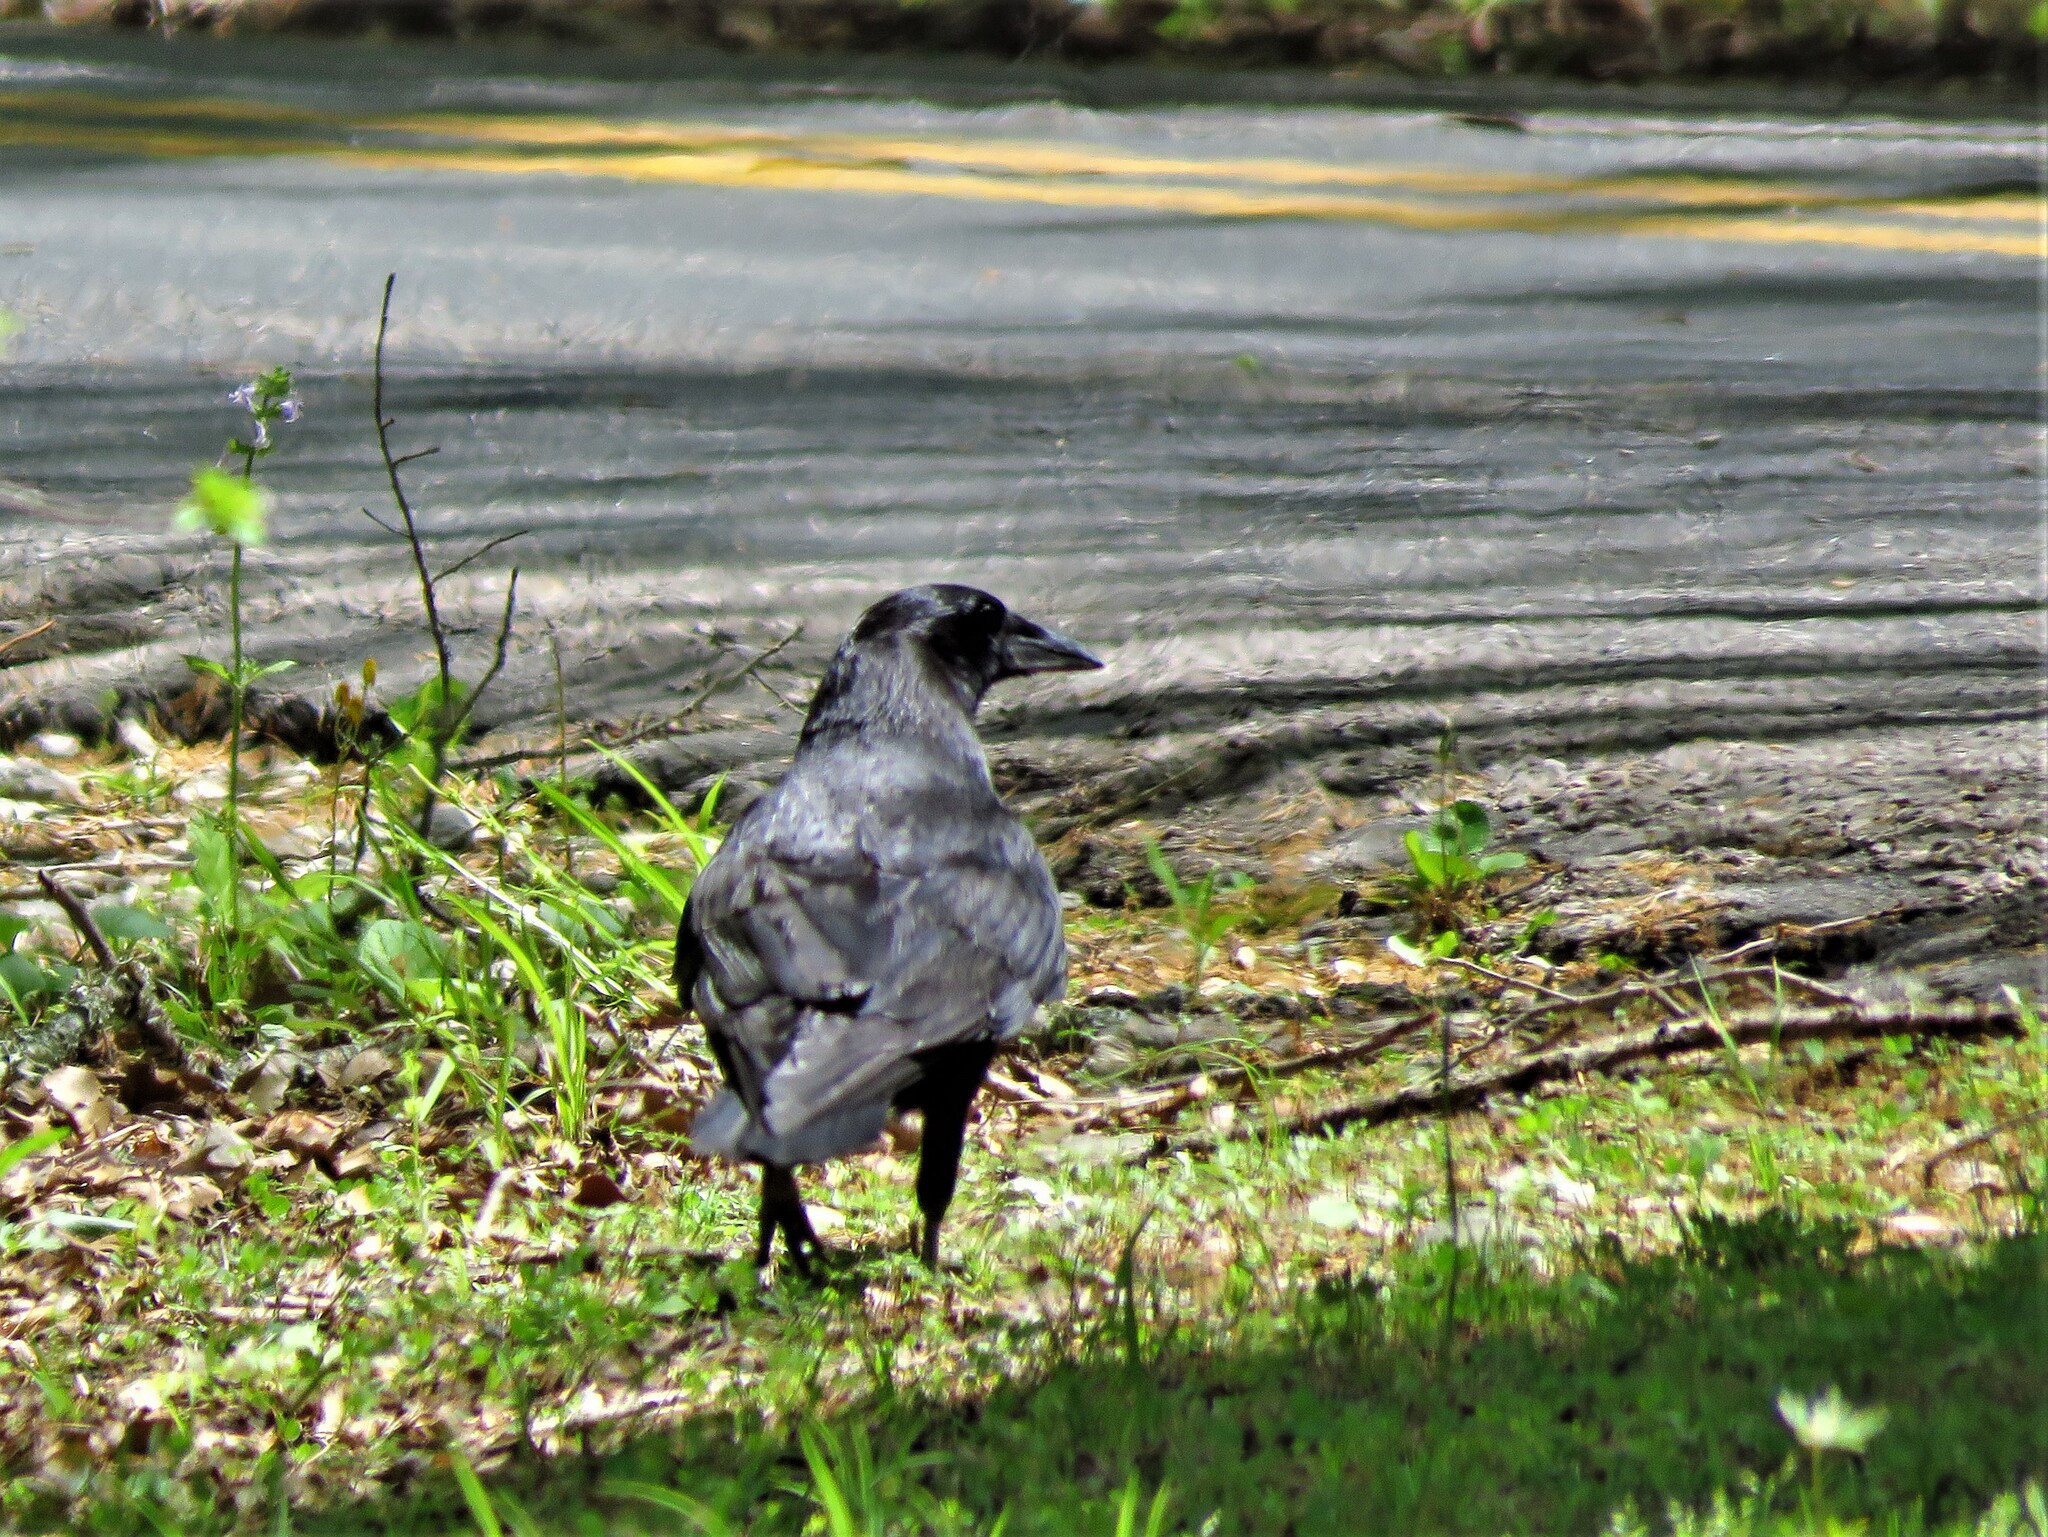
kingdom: Animalia
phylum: Chordata
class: Aves
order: Passeriformes
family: Corvidae
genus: Corvus
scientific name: Corvus brachyrhynchos
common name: American crow
